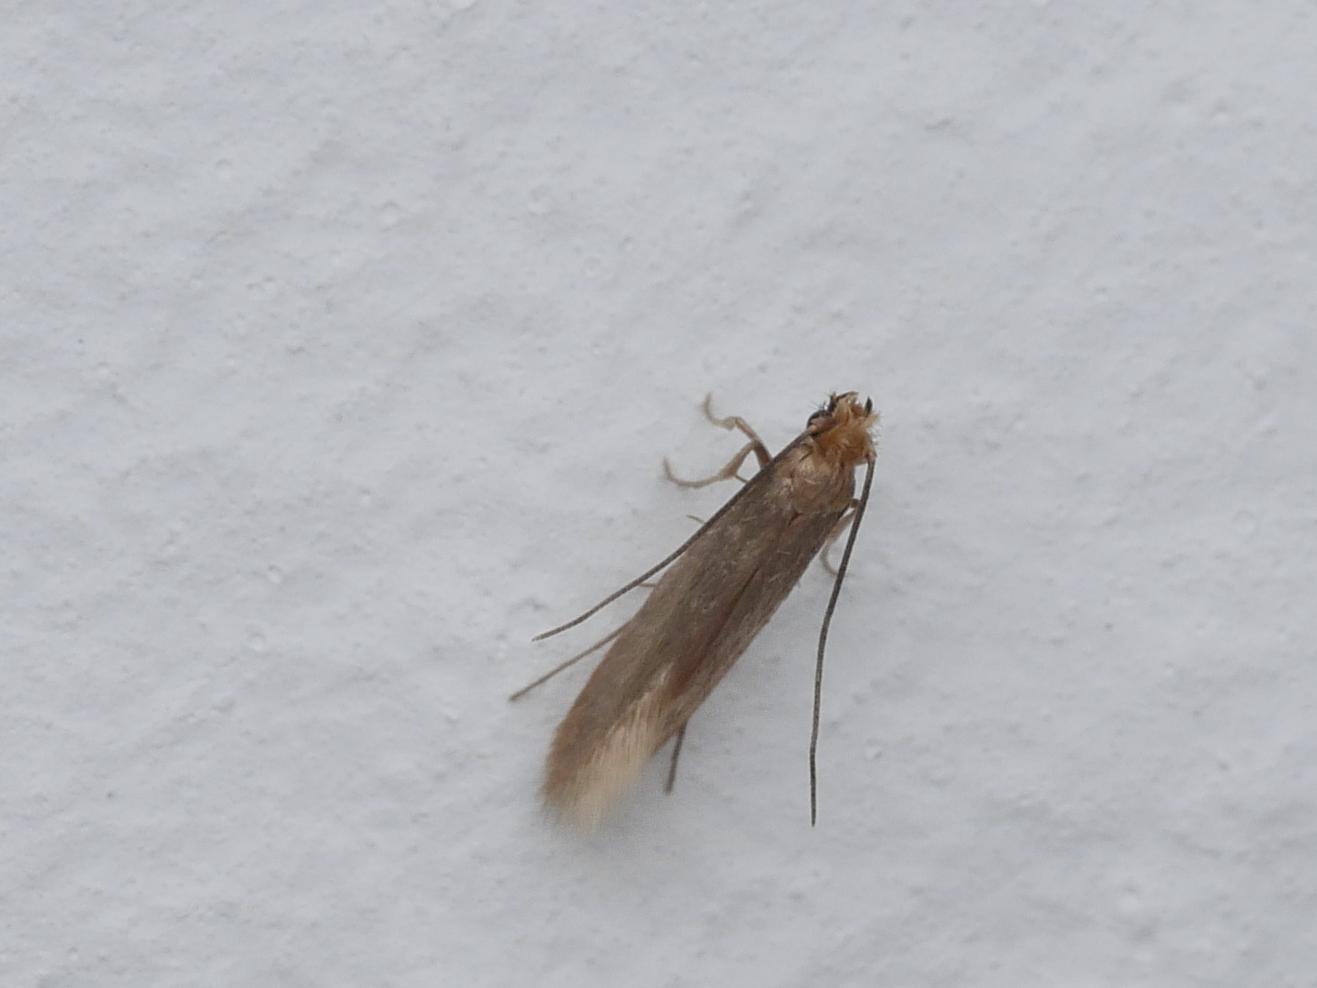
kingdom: Animalia
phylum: Arthropoda
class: Insecta
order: Lepidoptera
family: Tineidae
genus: Tineola
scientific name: Tineola bisselliella
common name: Webbing clothes moth
